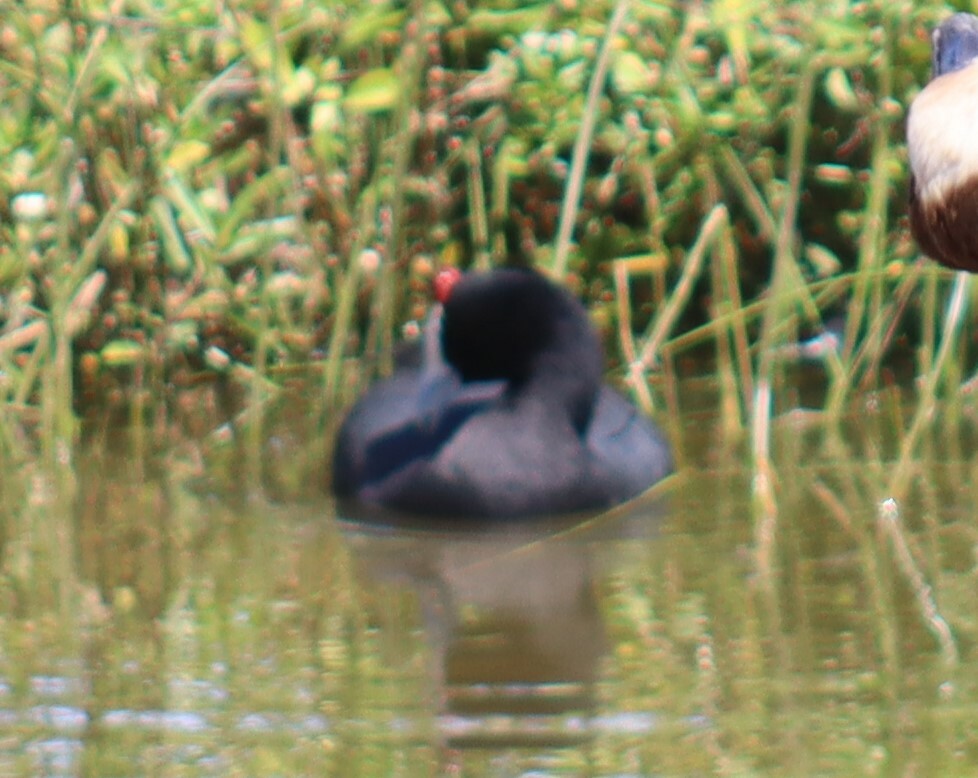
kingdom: Animalia
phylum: Chordata
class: Aves
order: Gruiformes
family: Rallidae
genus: Fulica
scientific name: Fulica cristata
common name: Red-knobbed coot
